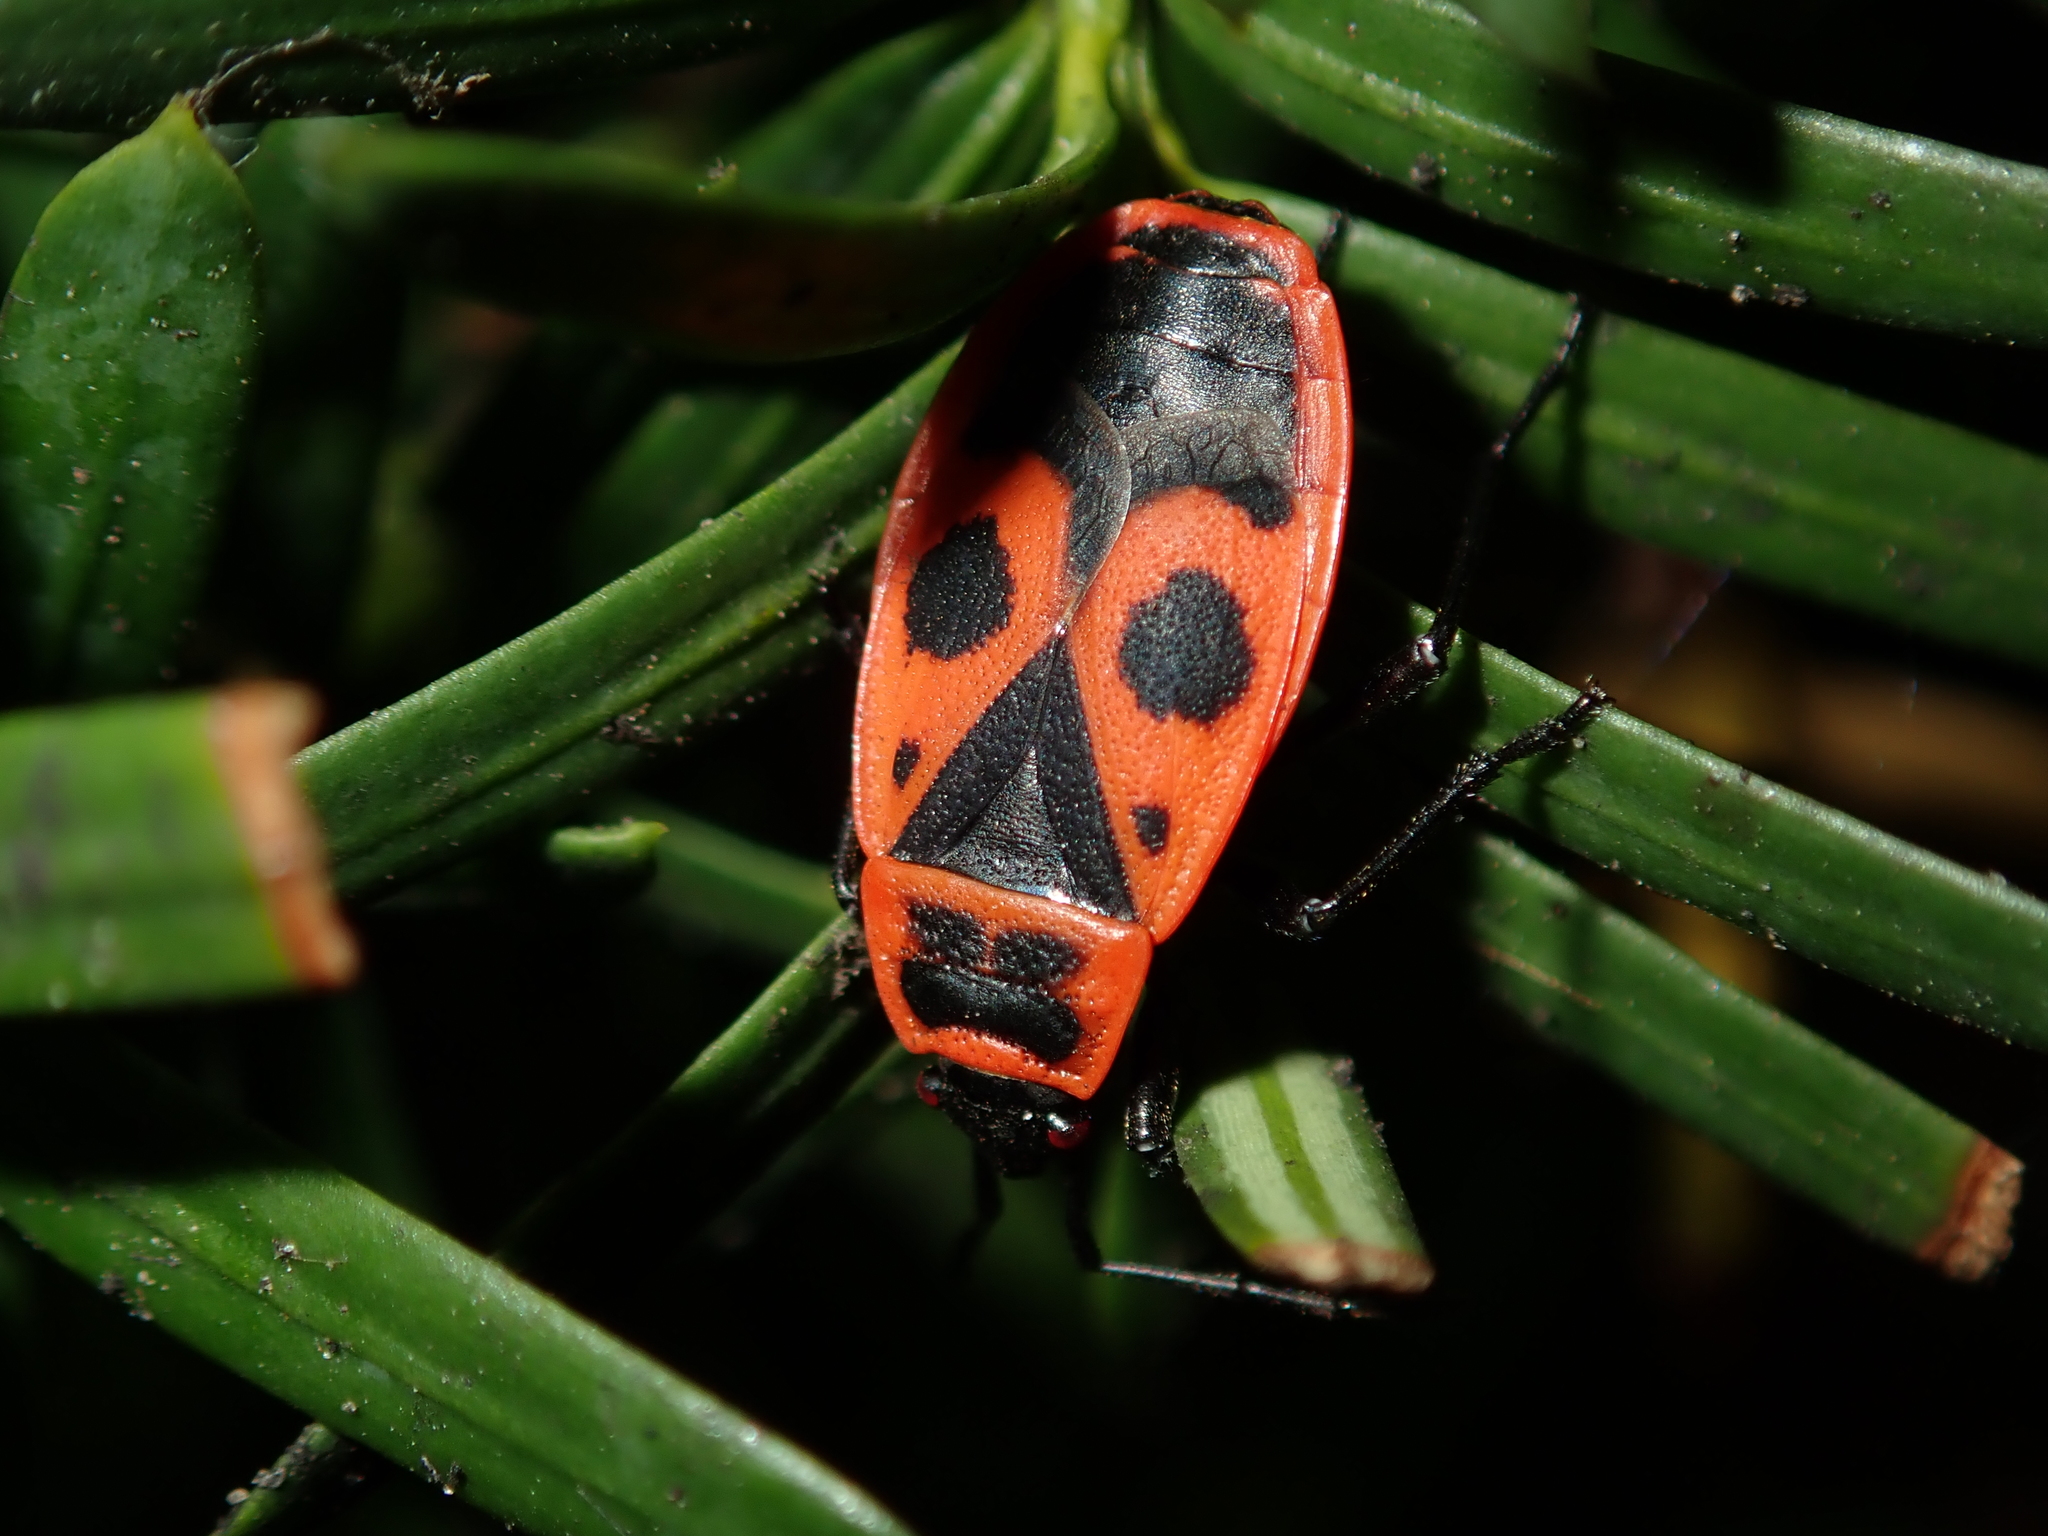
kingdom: Animalia
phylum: Arthropoda
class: Insecta
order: Hemiptera
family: Pyrrhocoridae
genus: Pyrrhocoris
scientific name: Pyrrhocoris apterus
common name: Firebug
